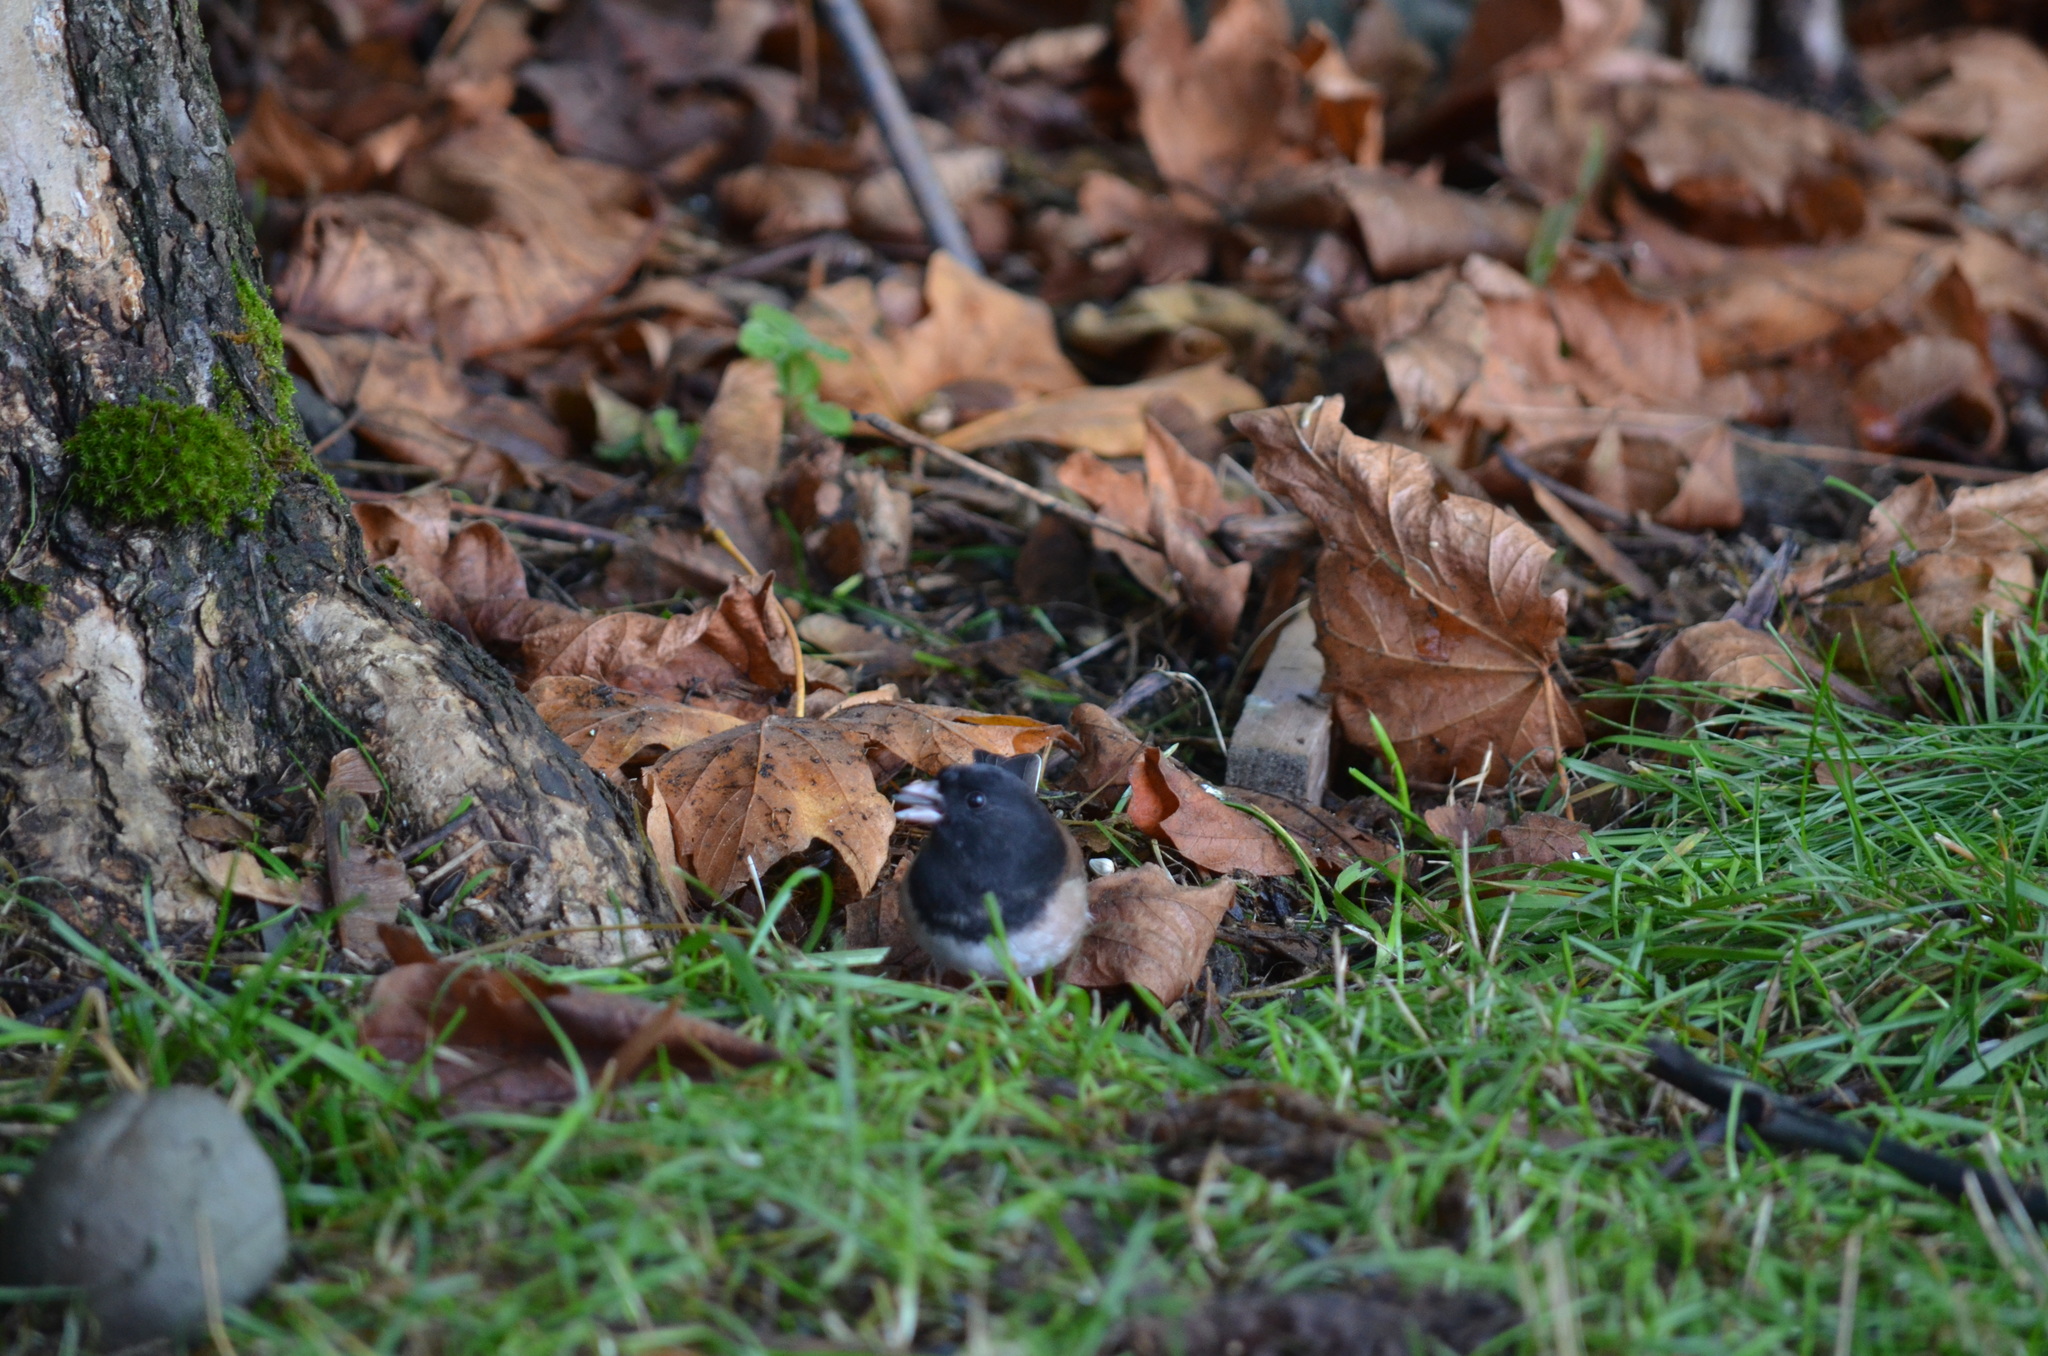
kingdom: Animalia
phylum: Chordata
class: Aves
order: Passeriformes
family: Passerellidae
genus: Junco
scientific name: Junco hyemalis
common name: Dark-eyed junco
